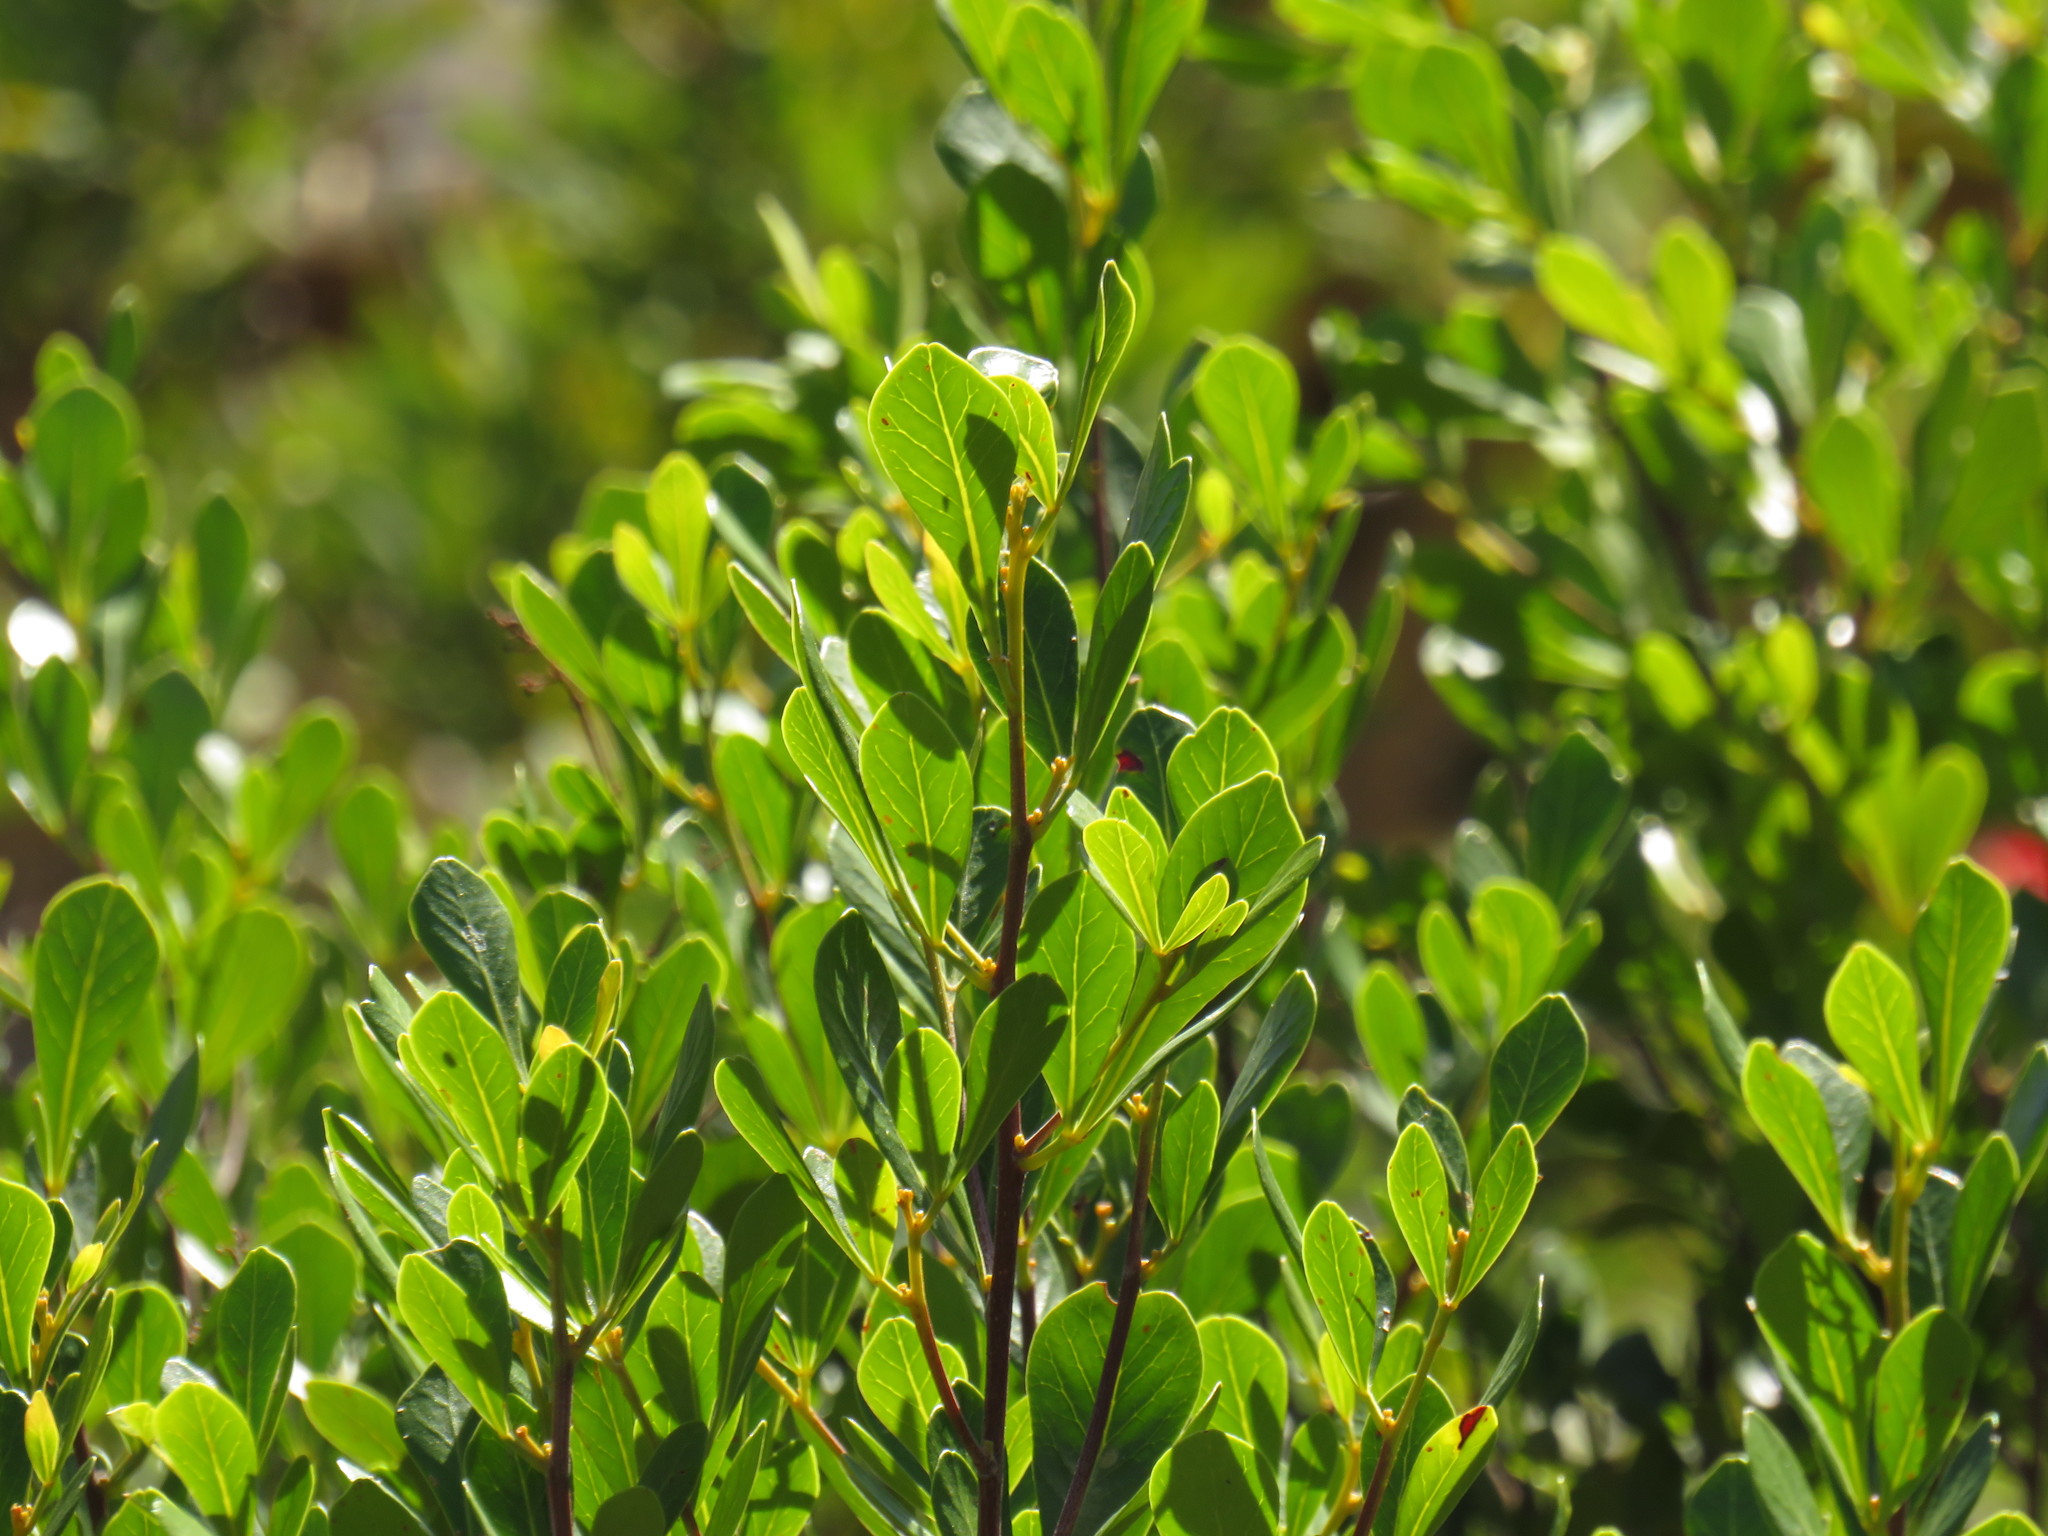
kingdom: Plantae
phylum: Tracheophyta
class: Magnoliopsida
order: Sapindales
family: Anacardiaceae
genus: Searsia
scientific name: Searsia lucida
